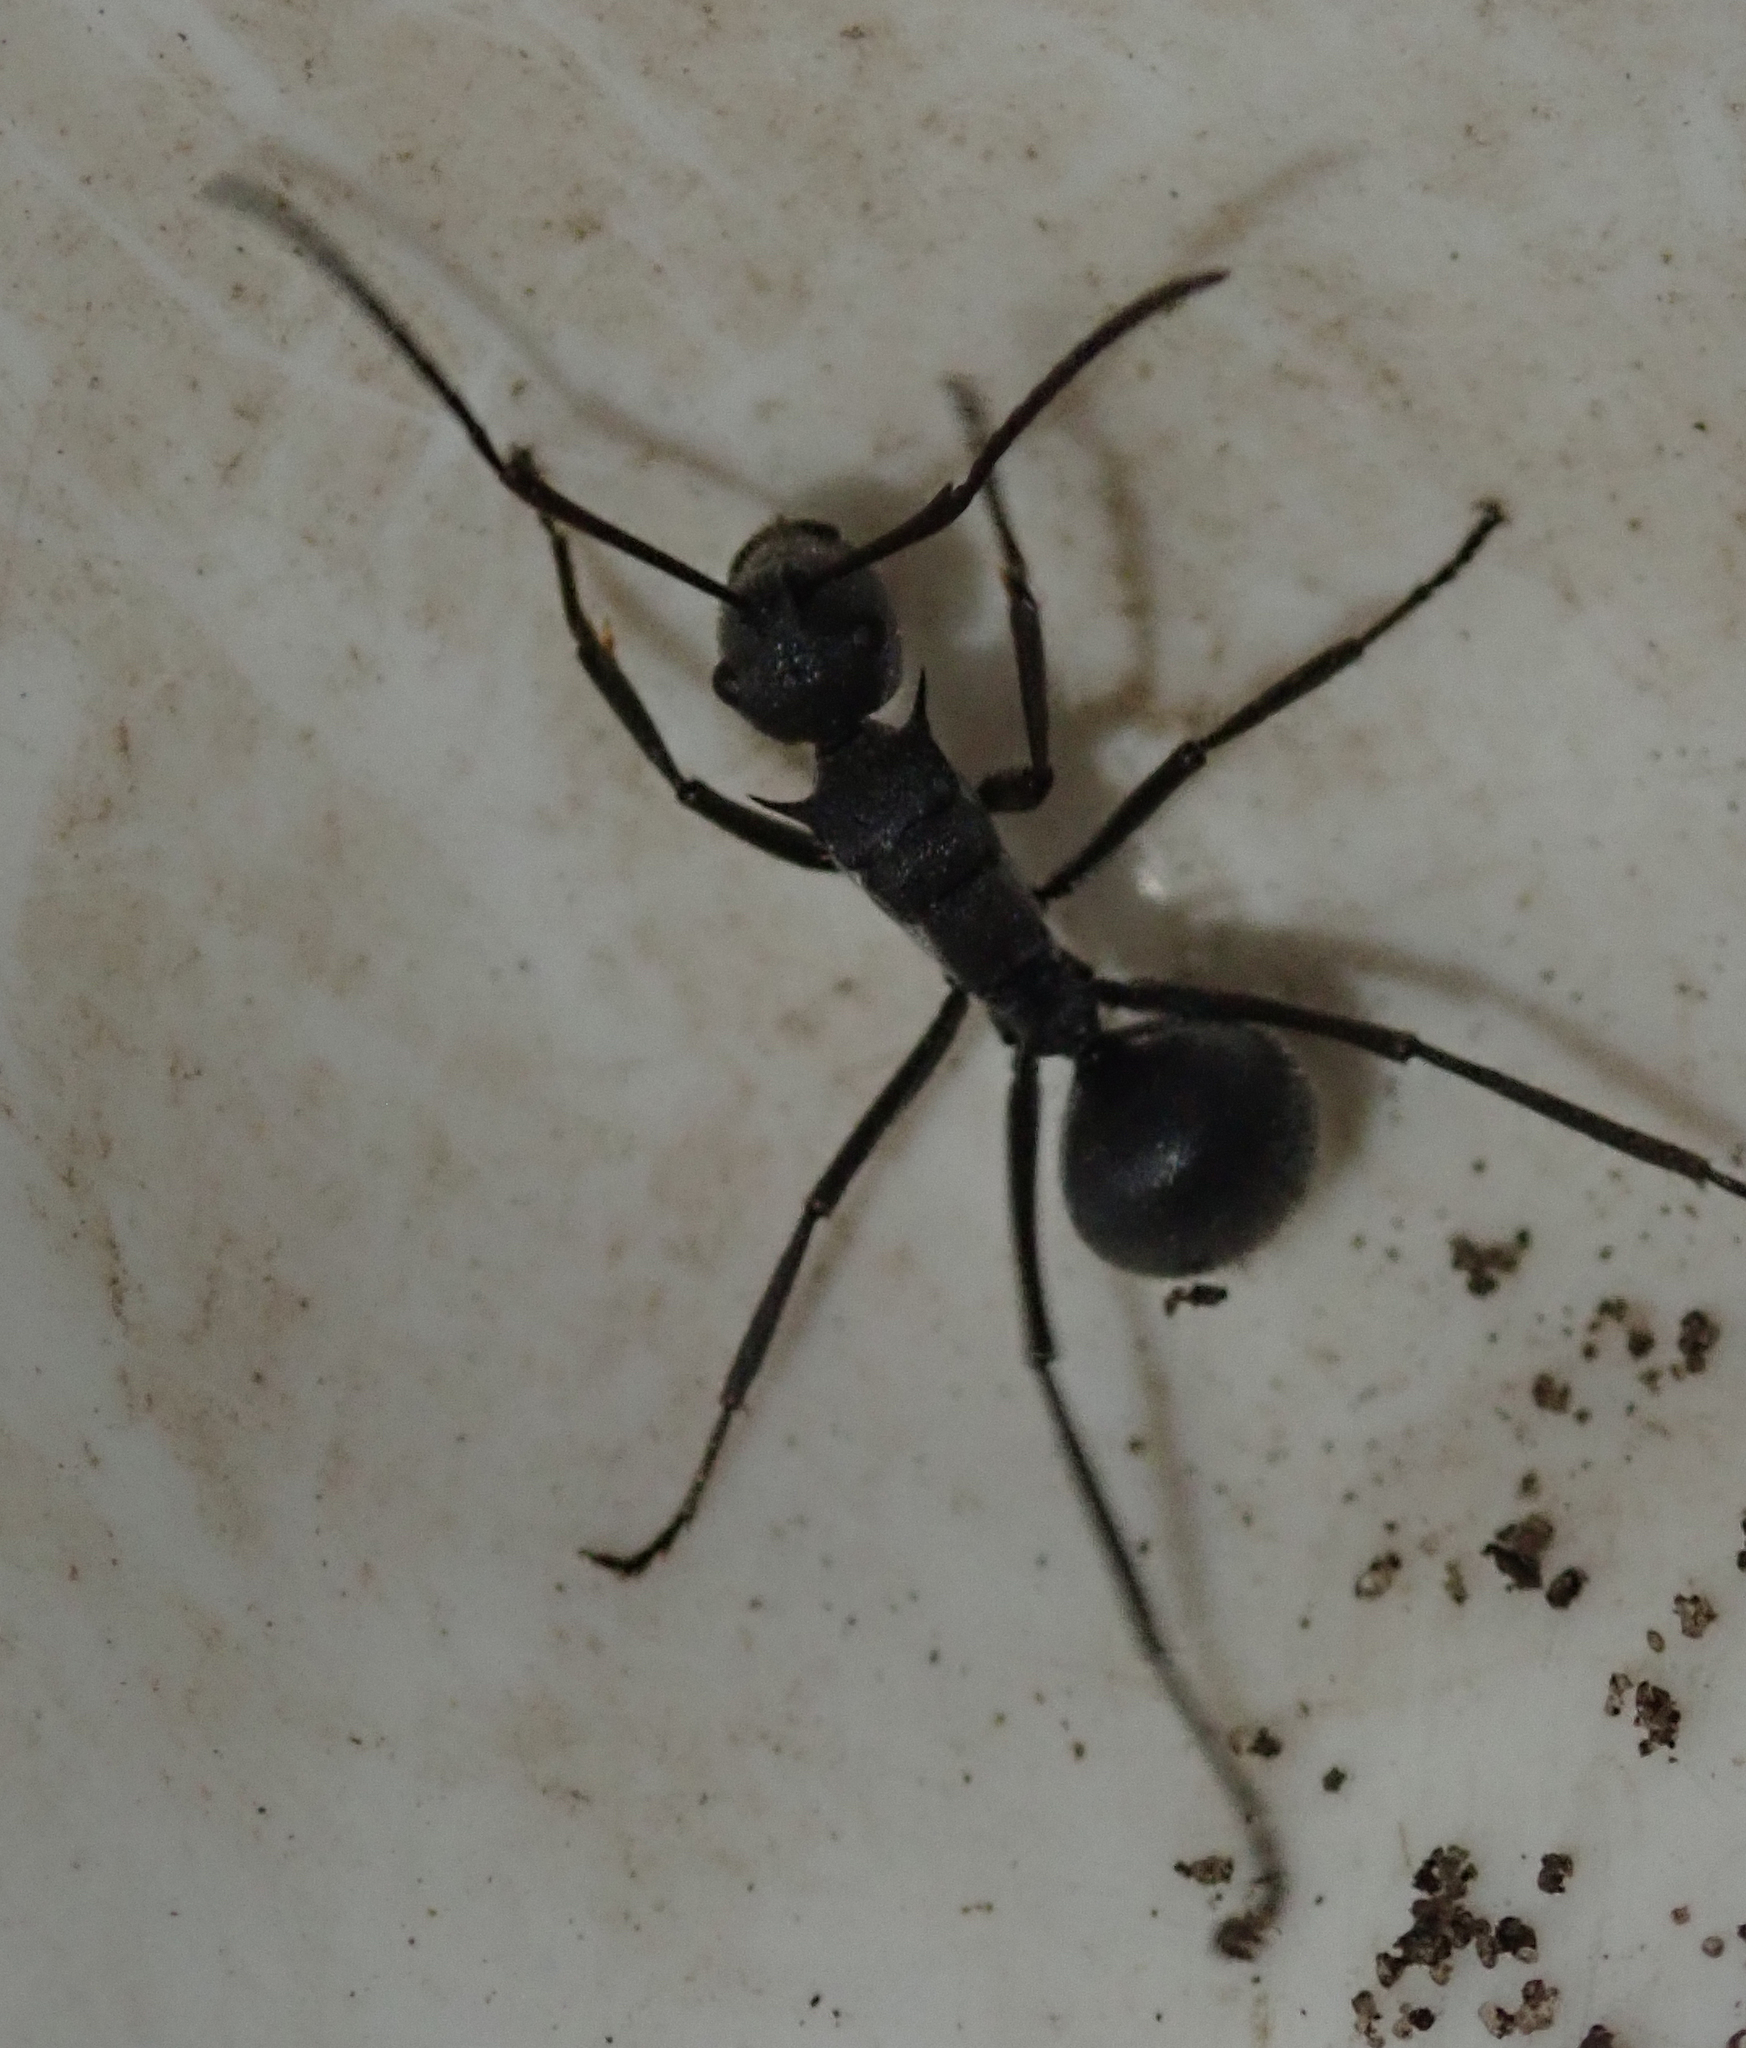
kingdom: Animalia
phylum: Arthropoda
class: Insecta
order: Hymenoptera
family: Formicidae
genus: Polyrhachis
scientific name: Polyrhachis schistacea
